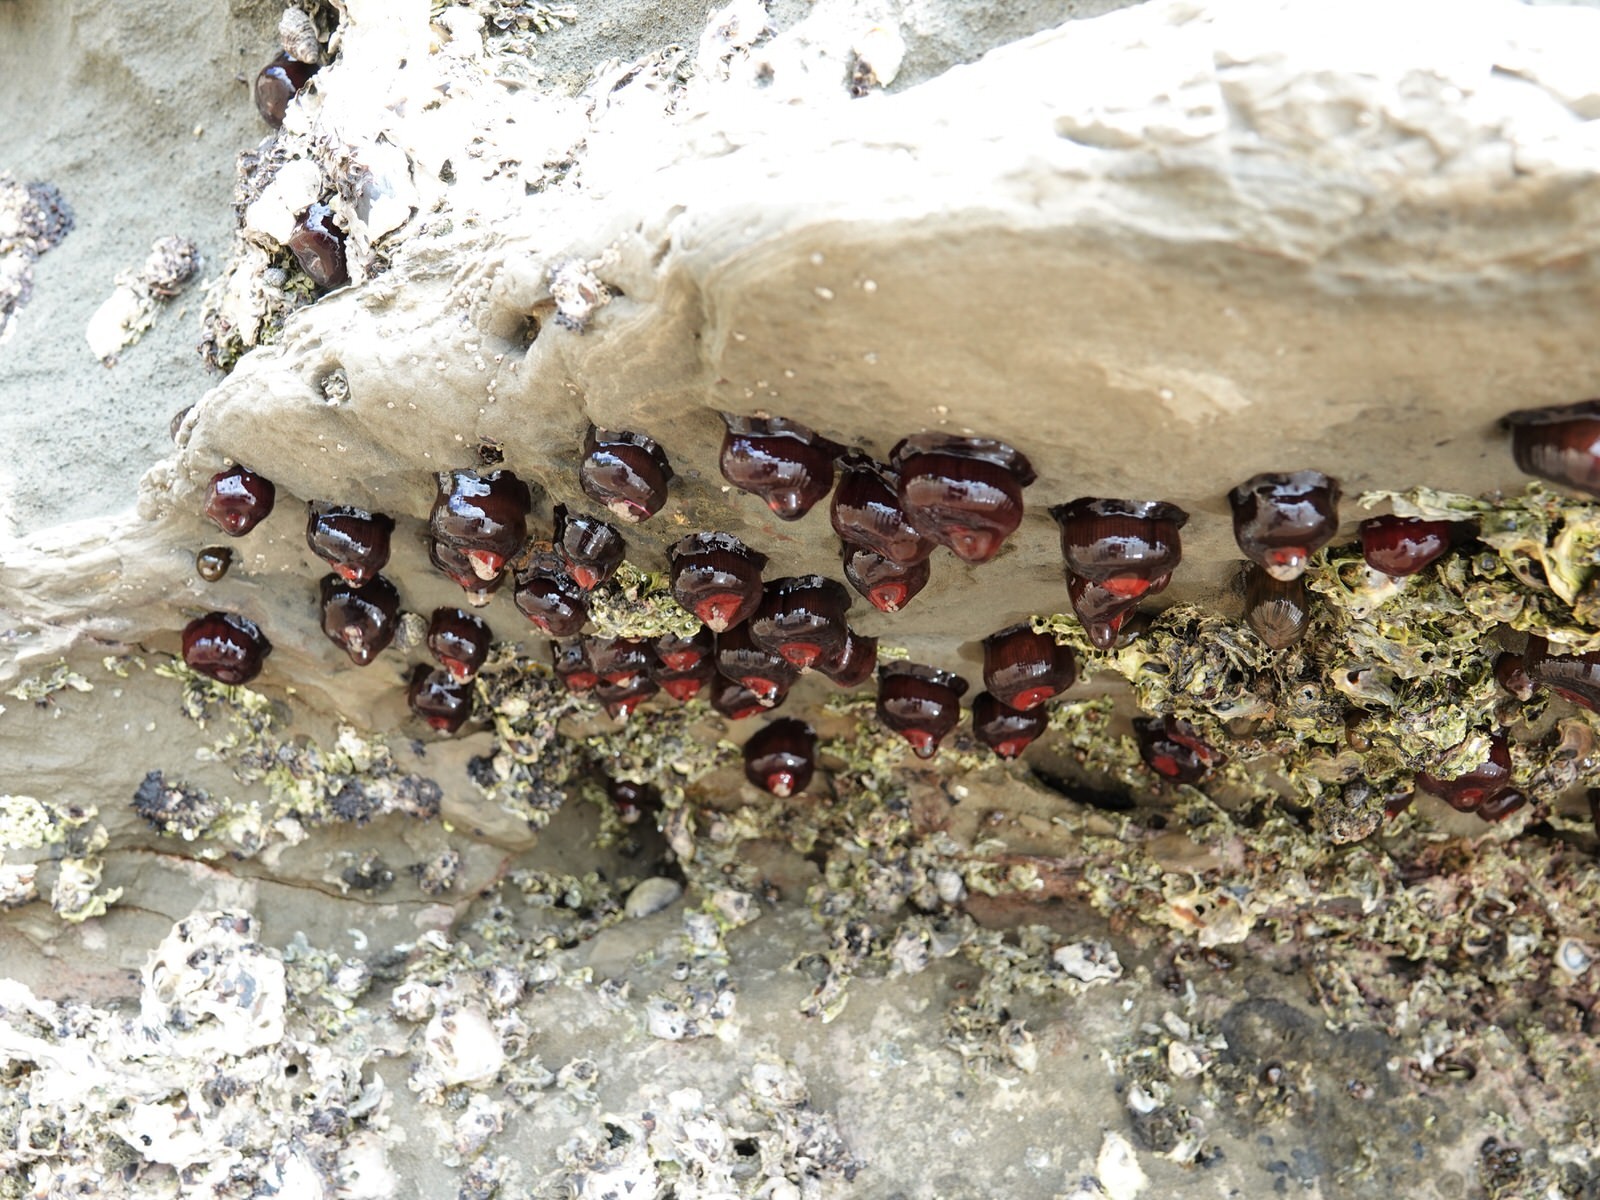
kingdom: Animalia
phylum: Cnidaria
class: Anthozoa
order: Actiniaria
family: Actiniidae
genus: Actinia
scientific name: Actinia tenebrosa
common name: Waratah anemone
